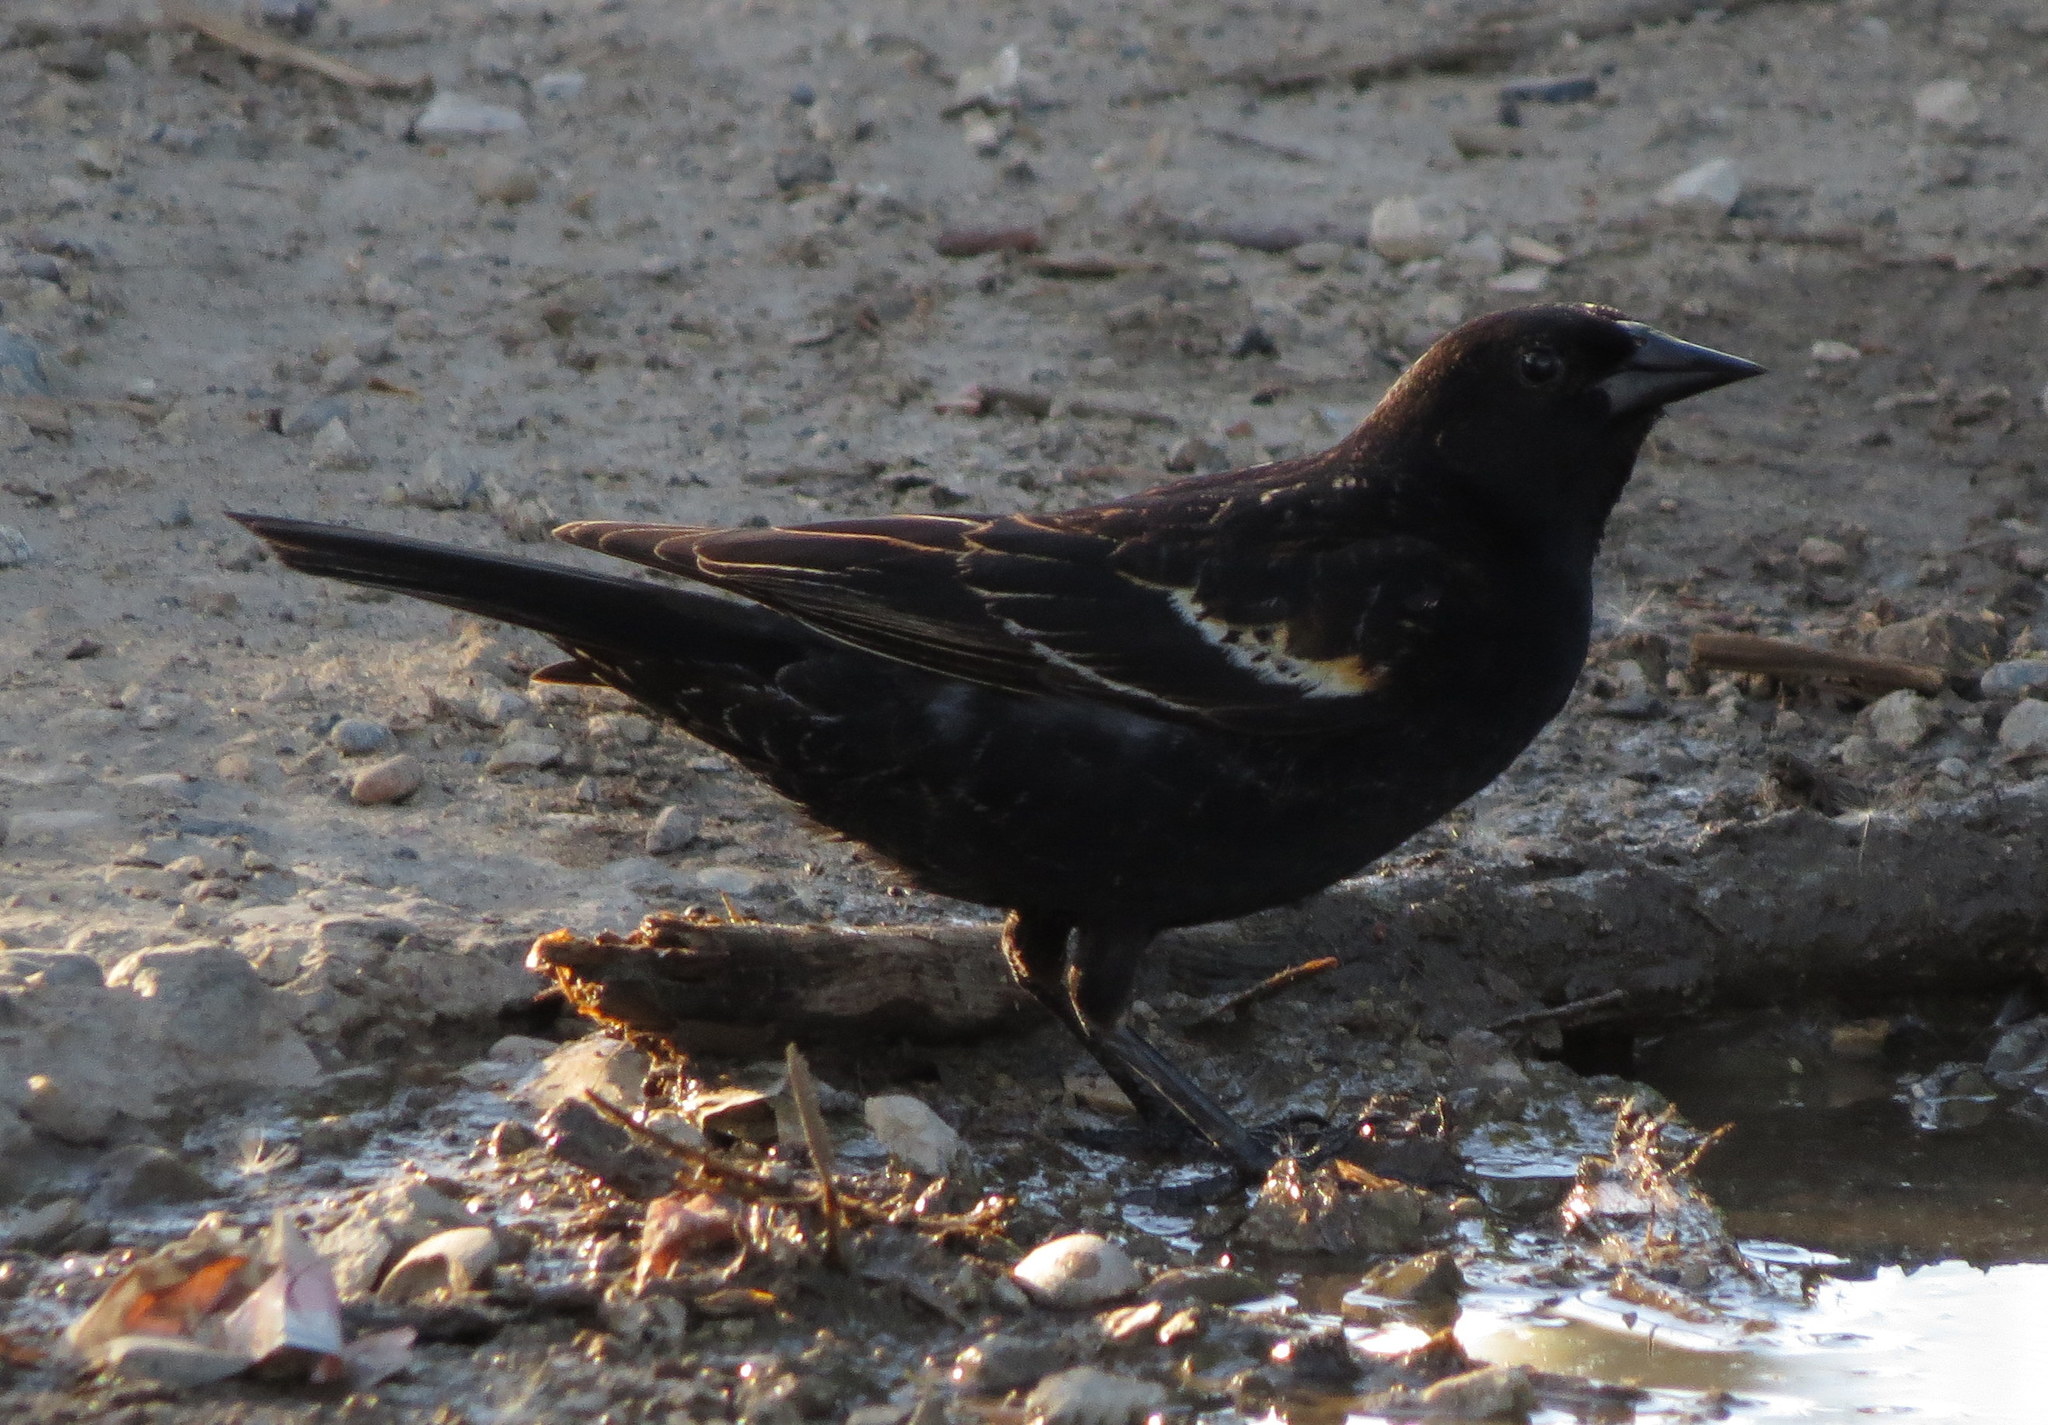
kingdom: Animalia
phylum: Chordata
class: Aves
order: Passeriformes
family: Icteridae
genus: Agelaius
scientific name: Agelaius phoeniceus
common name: Red-winged blackbird
